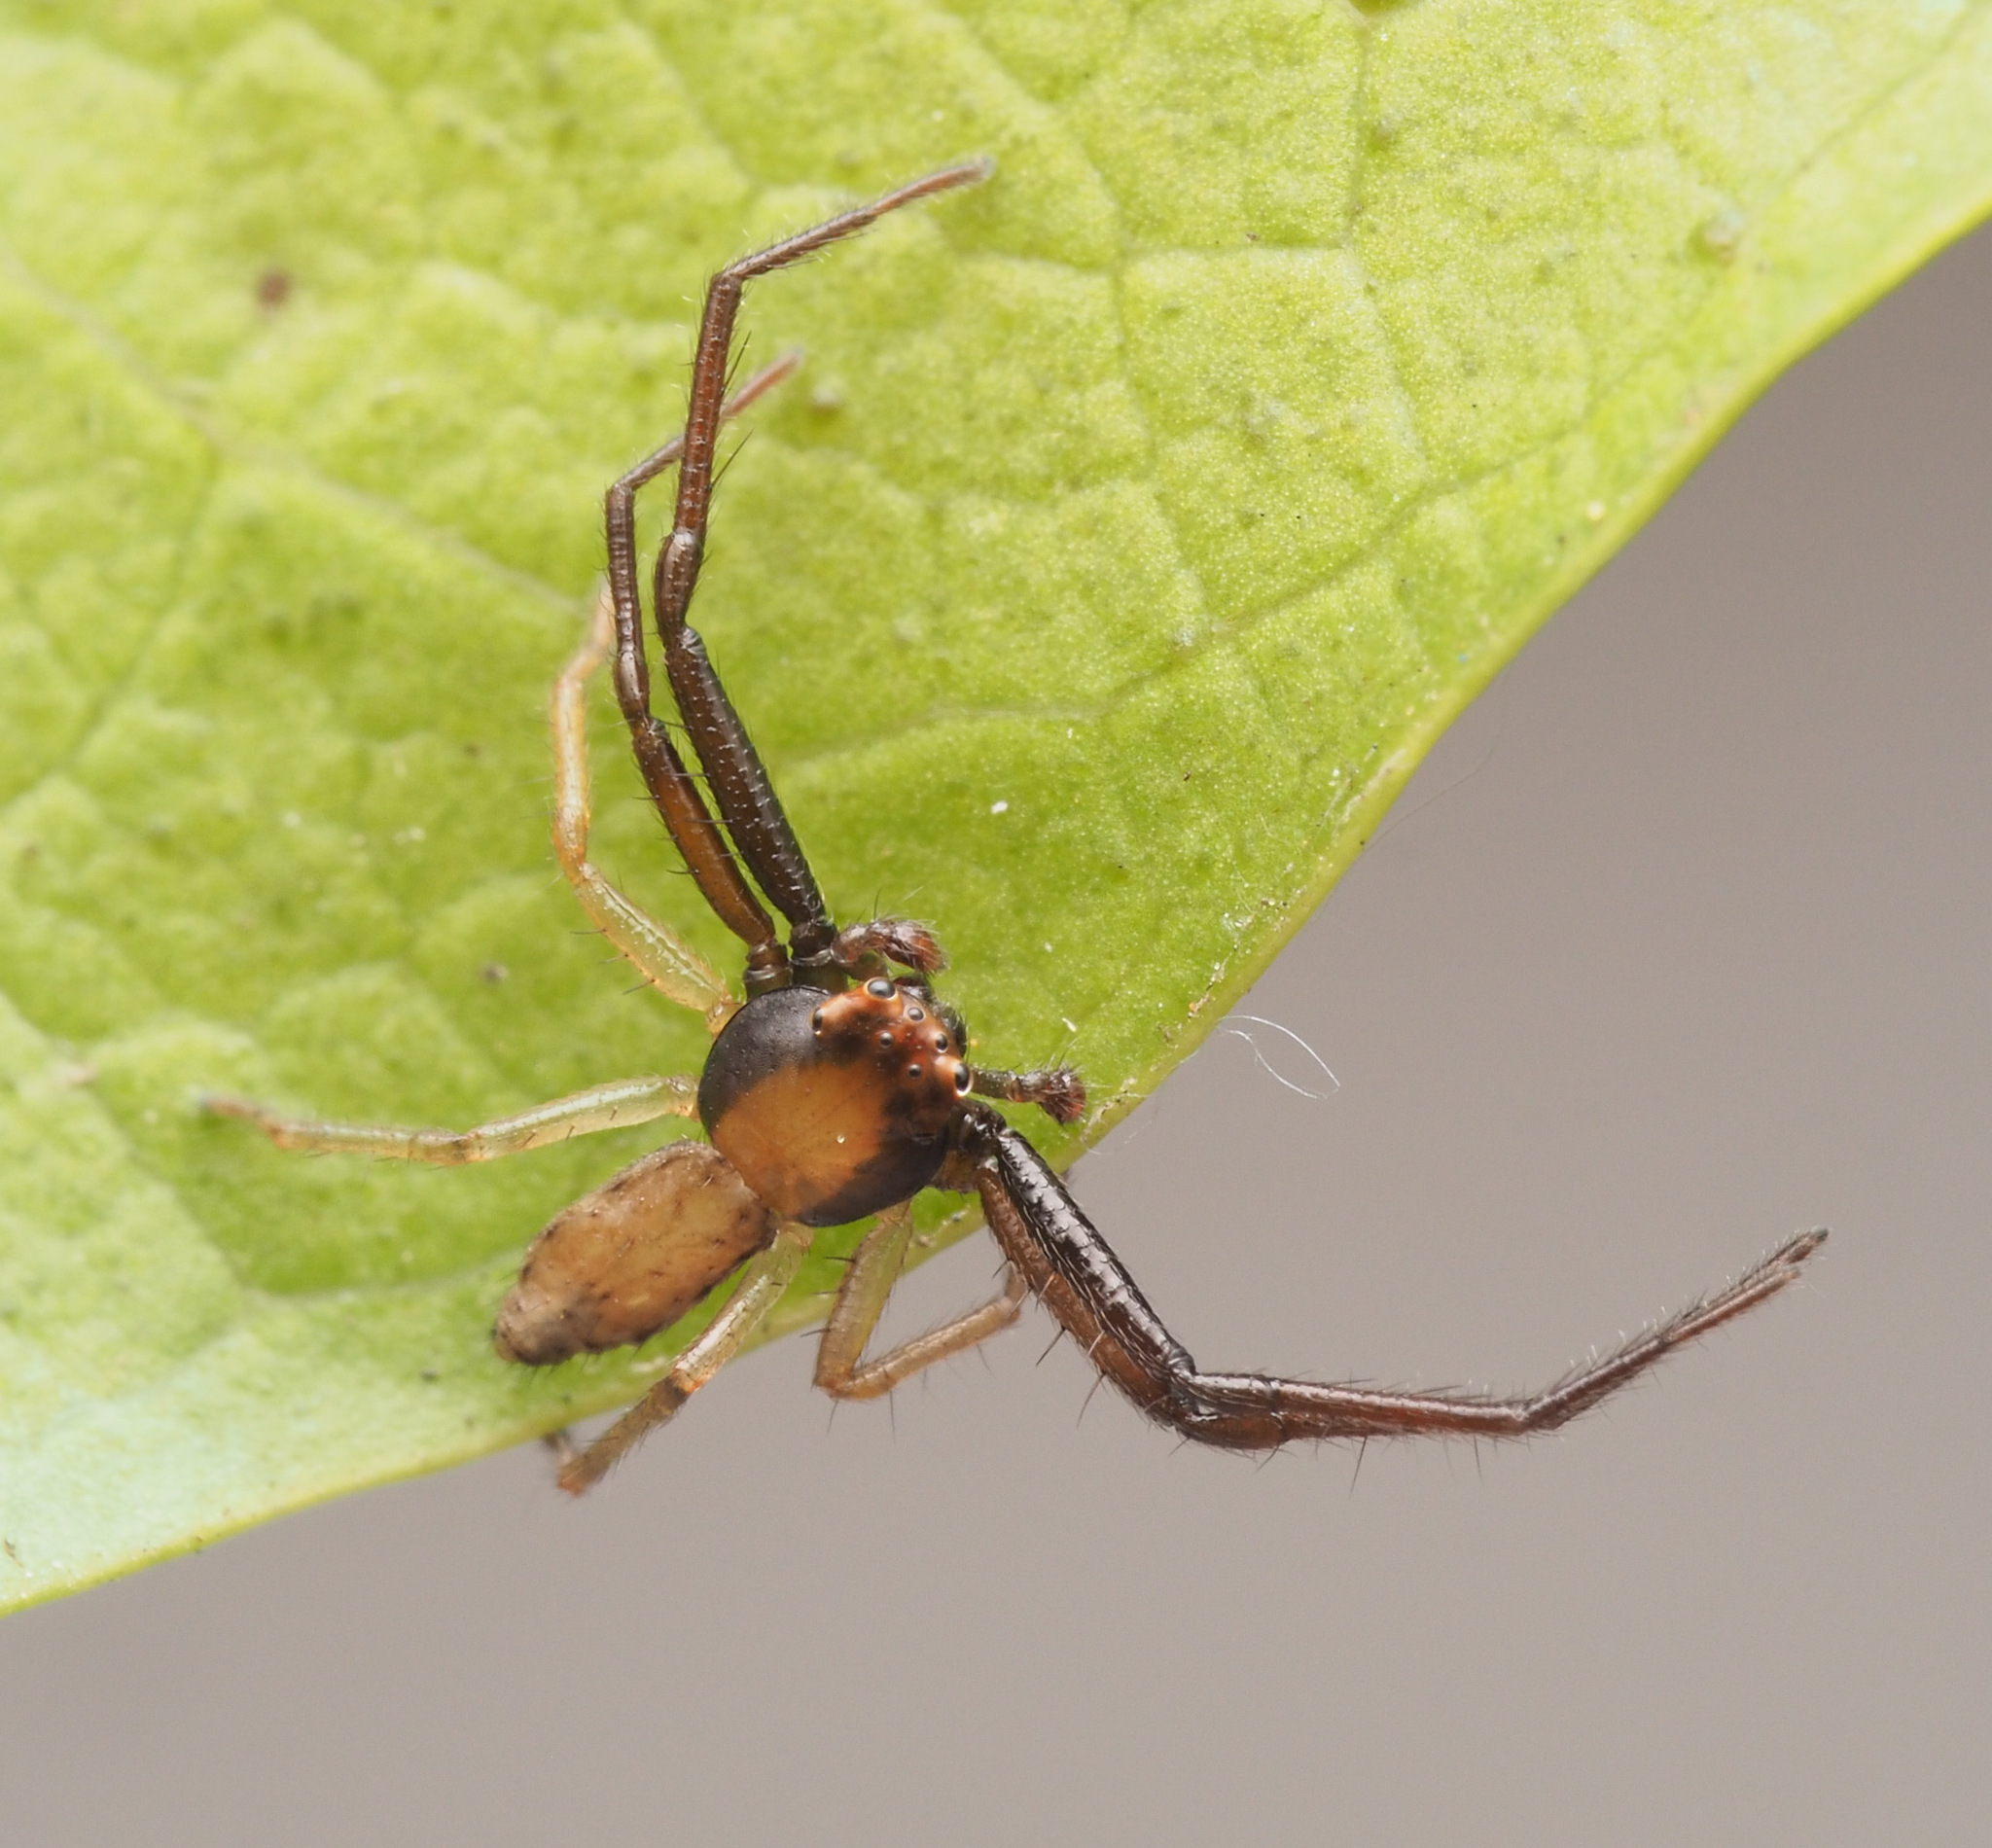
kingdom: Animalia
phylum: Arthropoda
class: Arachnida
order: Araneae
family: Thomisidae
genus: Hedana
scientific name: Hedana
